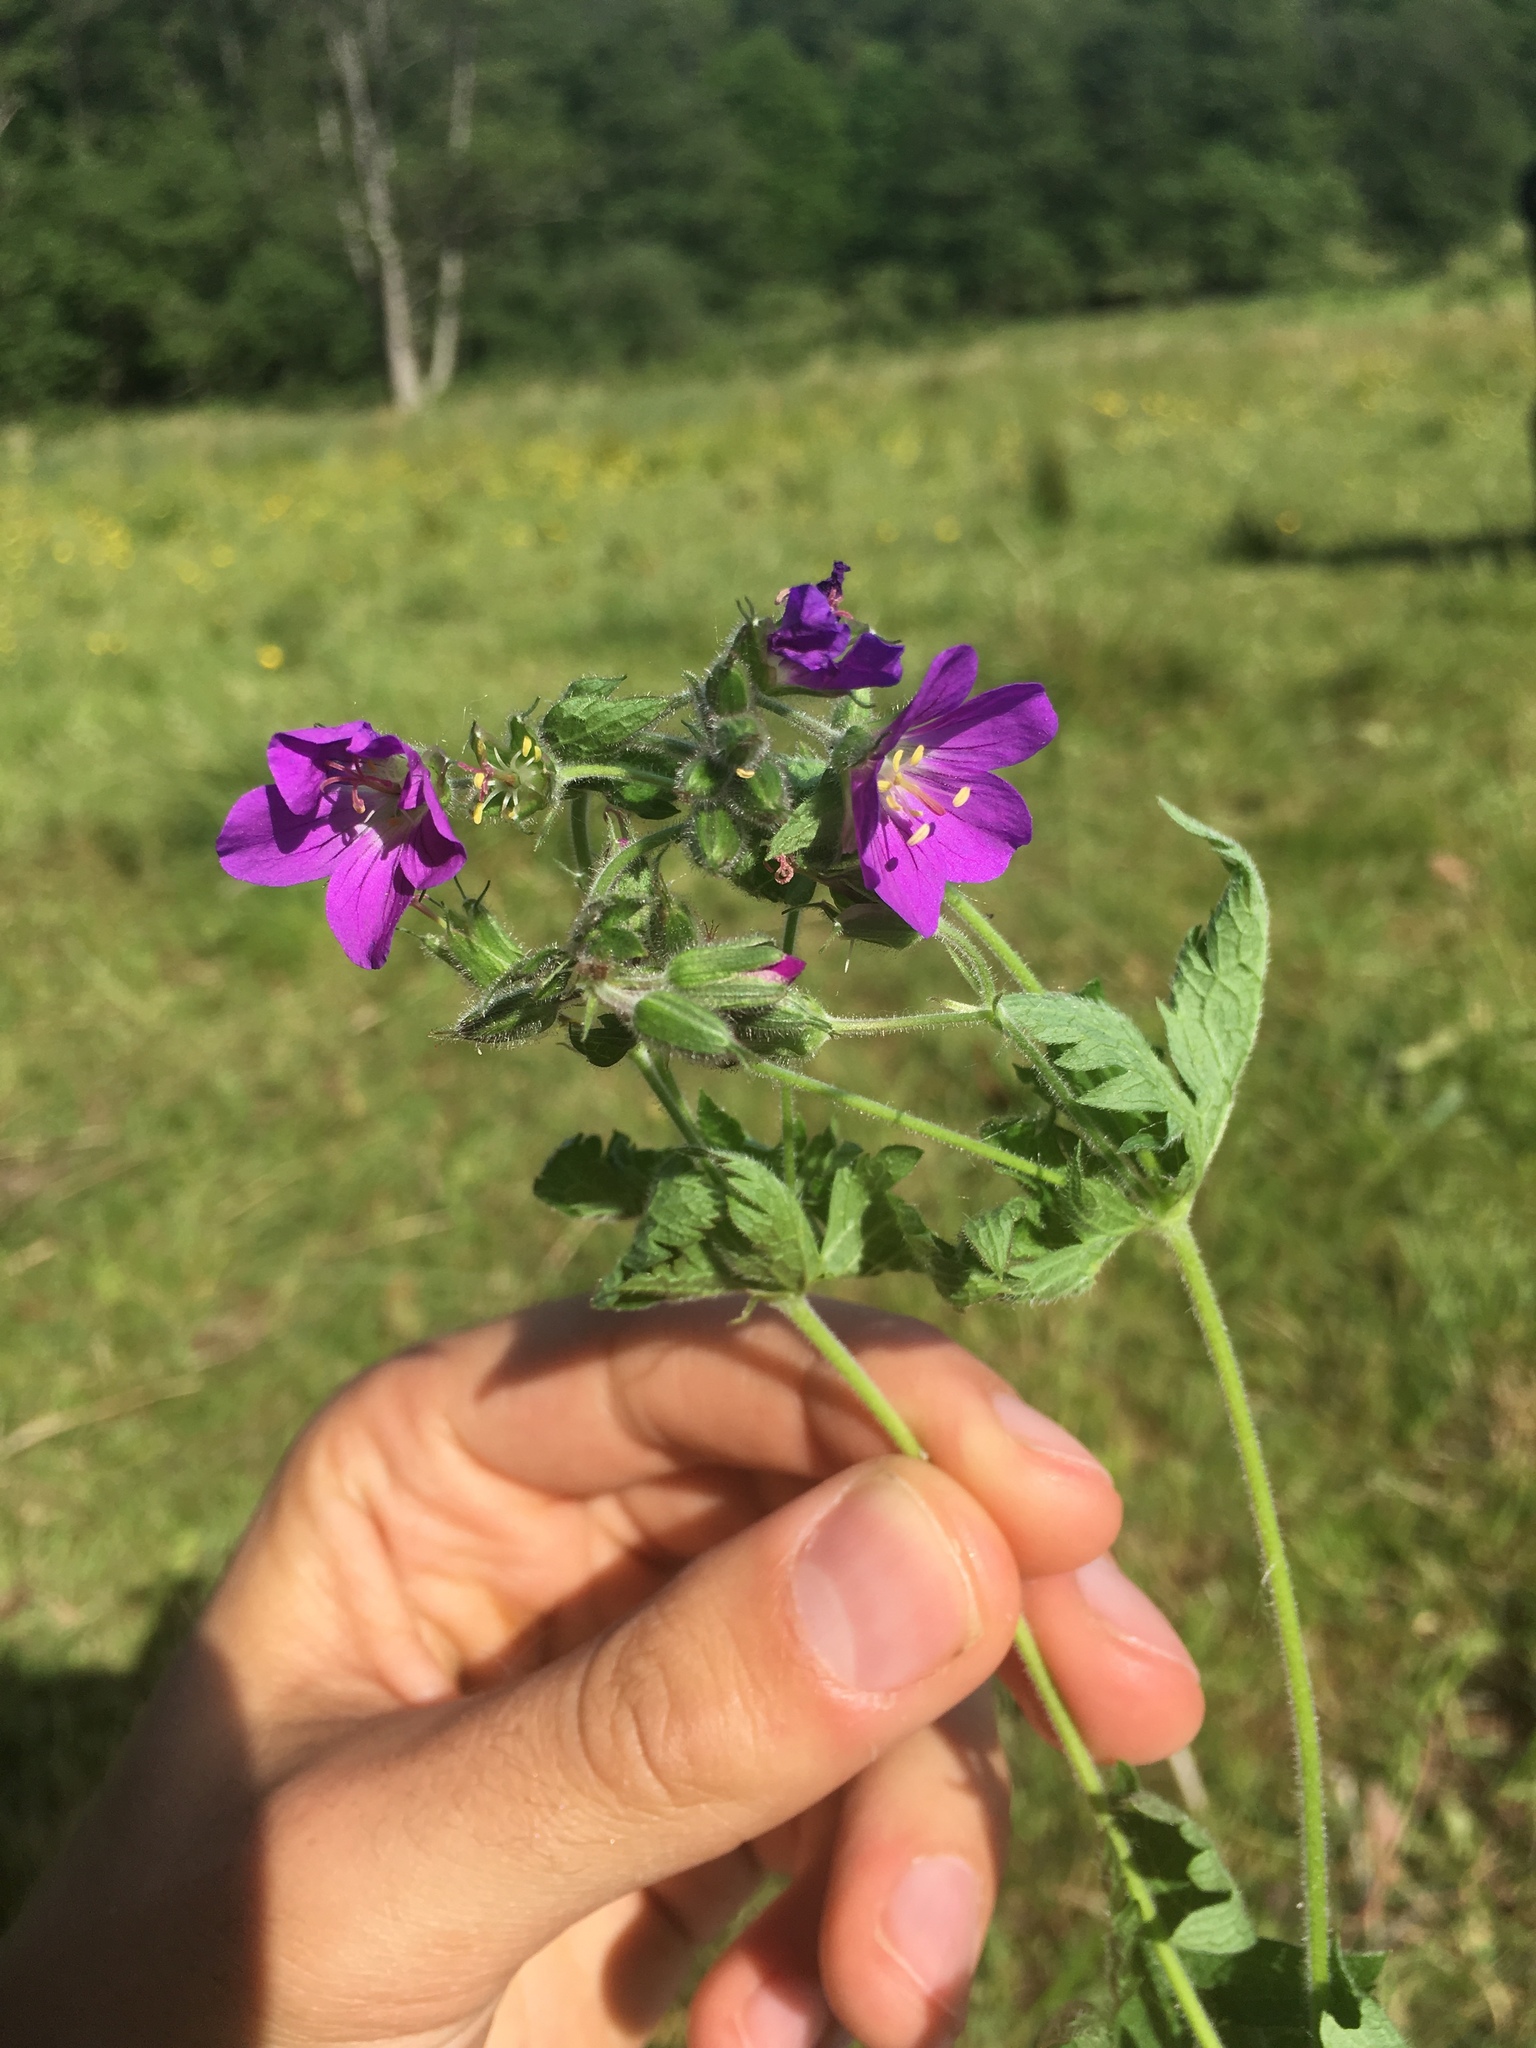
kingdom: Plantae
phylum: Tracheophyta
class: Magnoliopsida
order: Geraniales
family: Geraniaceae
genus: Geranium
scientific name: Geranium sylvaticum
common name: Wood crane's-bill
